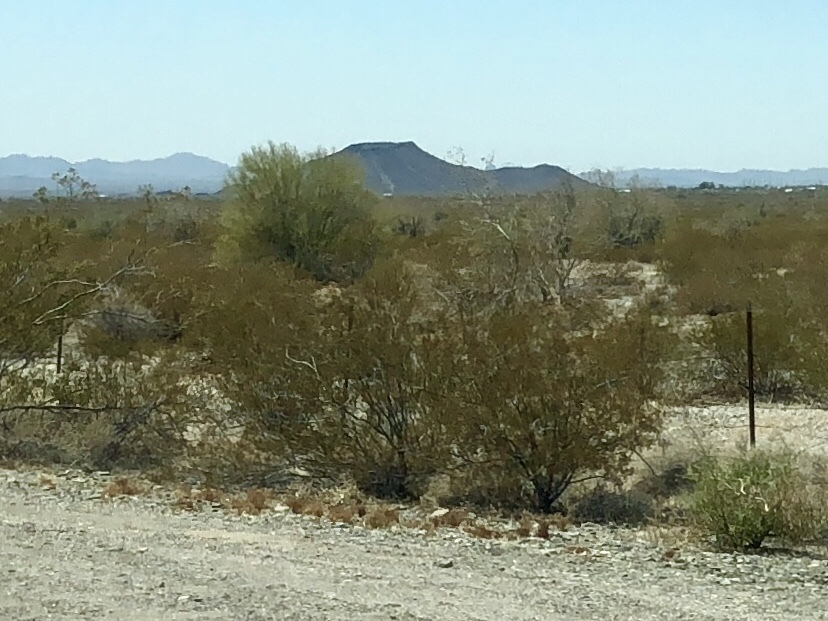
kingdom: Plantae
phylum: Tracheophyta
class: Magnoliopsida
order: Zygophyllales
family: Zygophyllaceae
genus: Larrea
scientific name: Larrea tridentata
